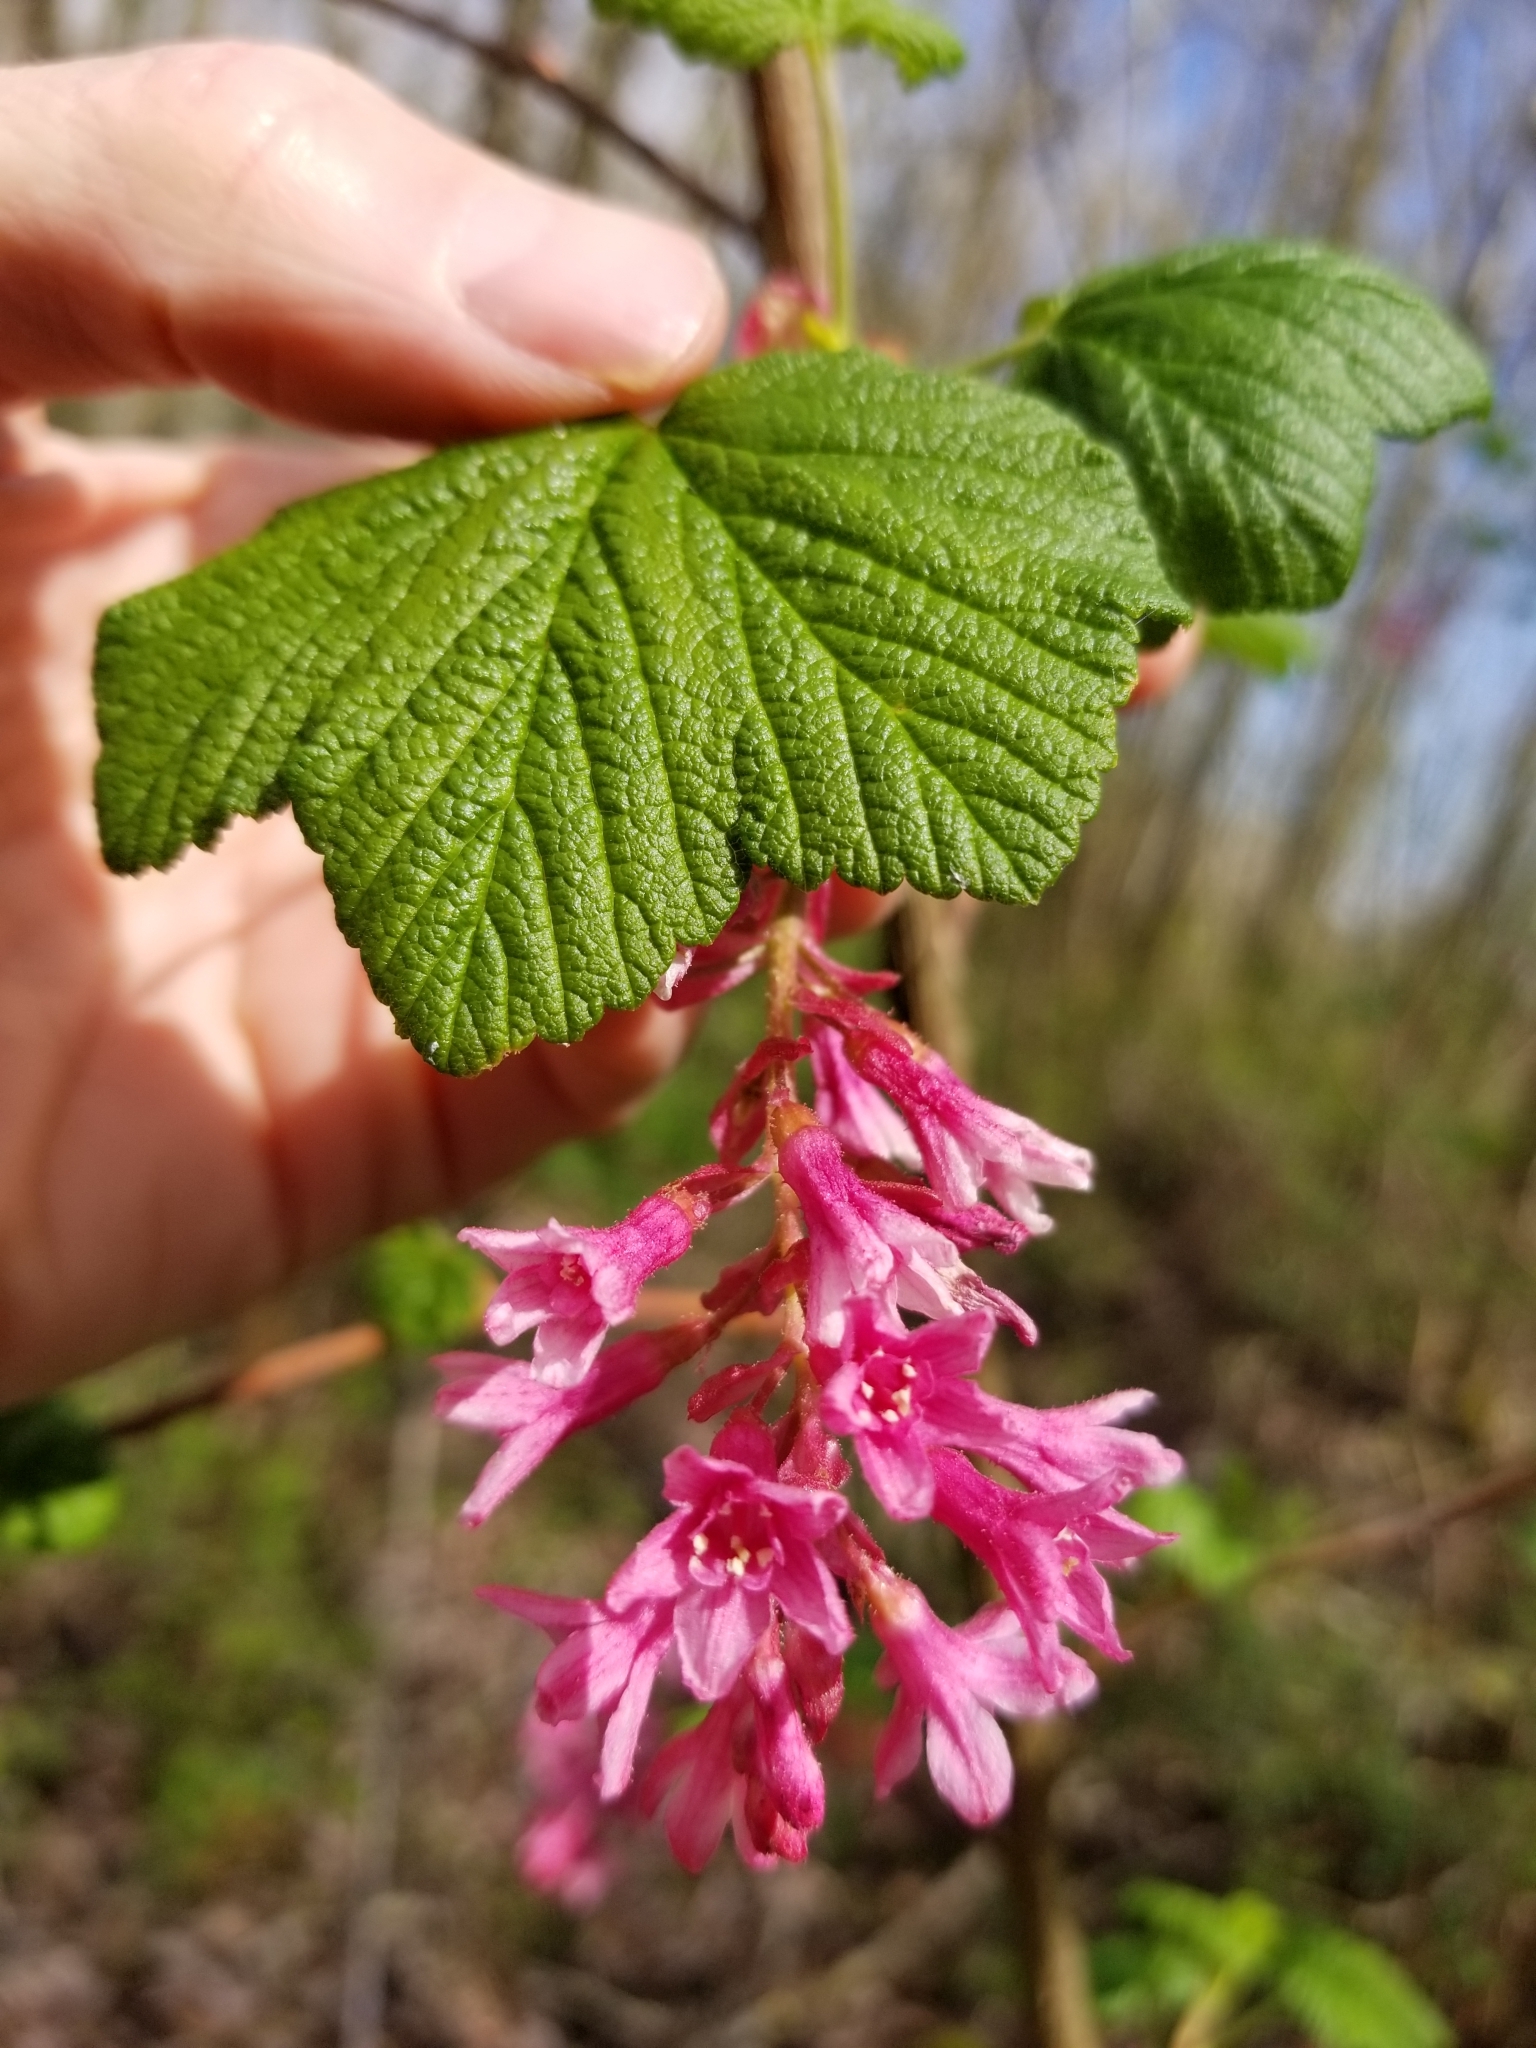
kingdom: Plantae
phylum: Tracheophyta
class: Magnoliopsida
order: Saxifragales
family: Grossulariaceae
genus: Ribes
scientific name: Ribes sanguineum
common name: Flowering currant
